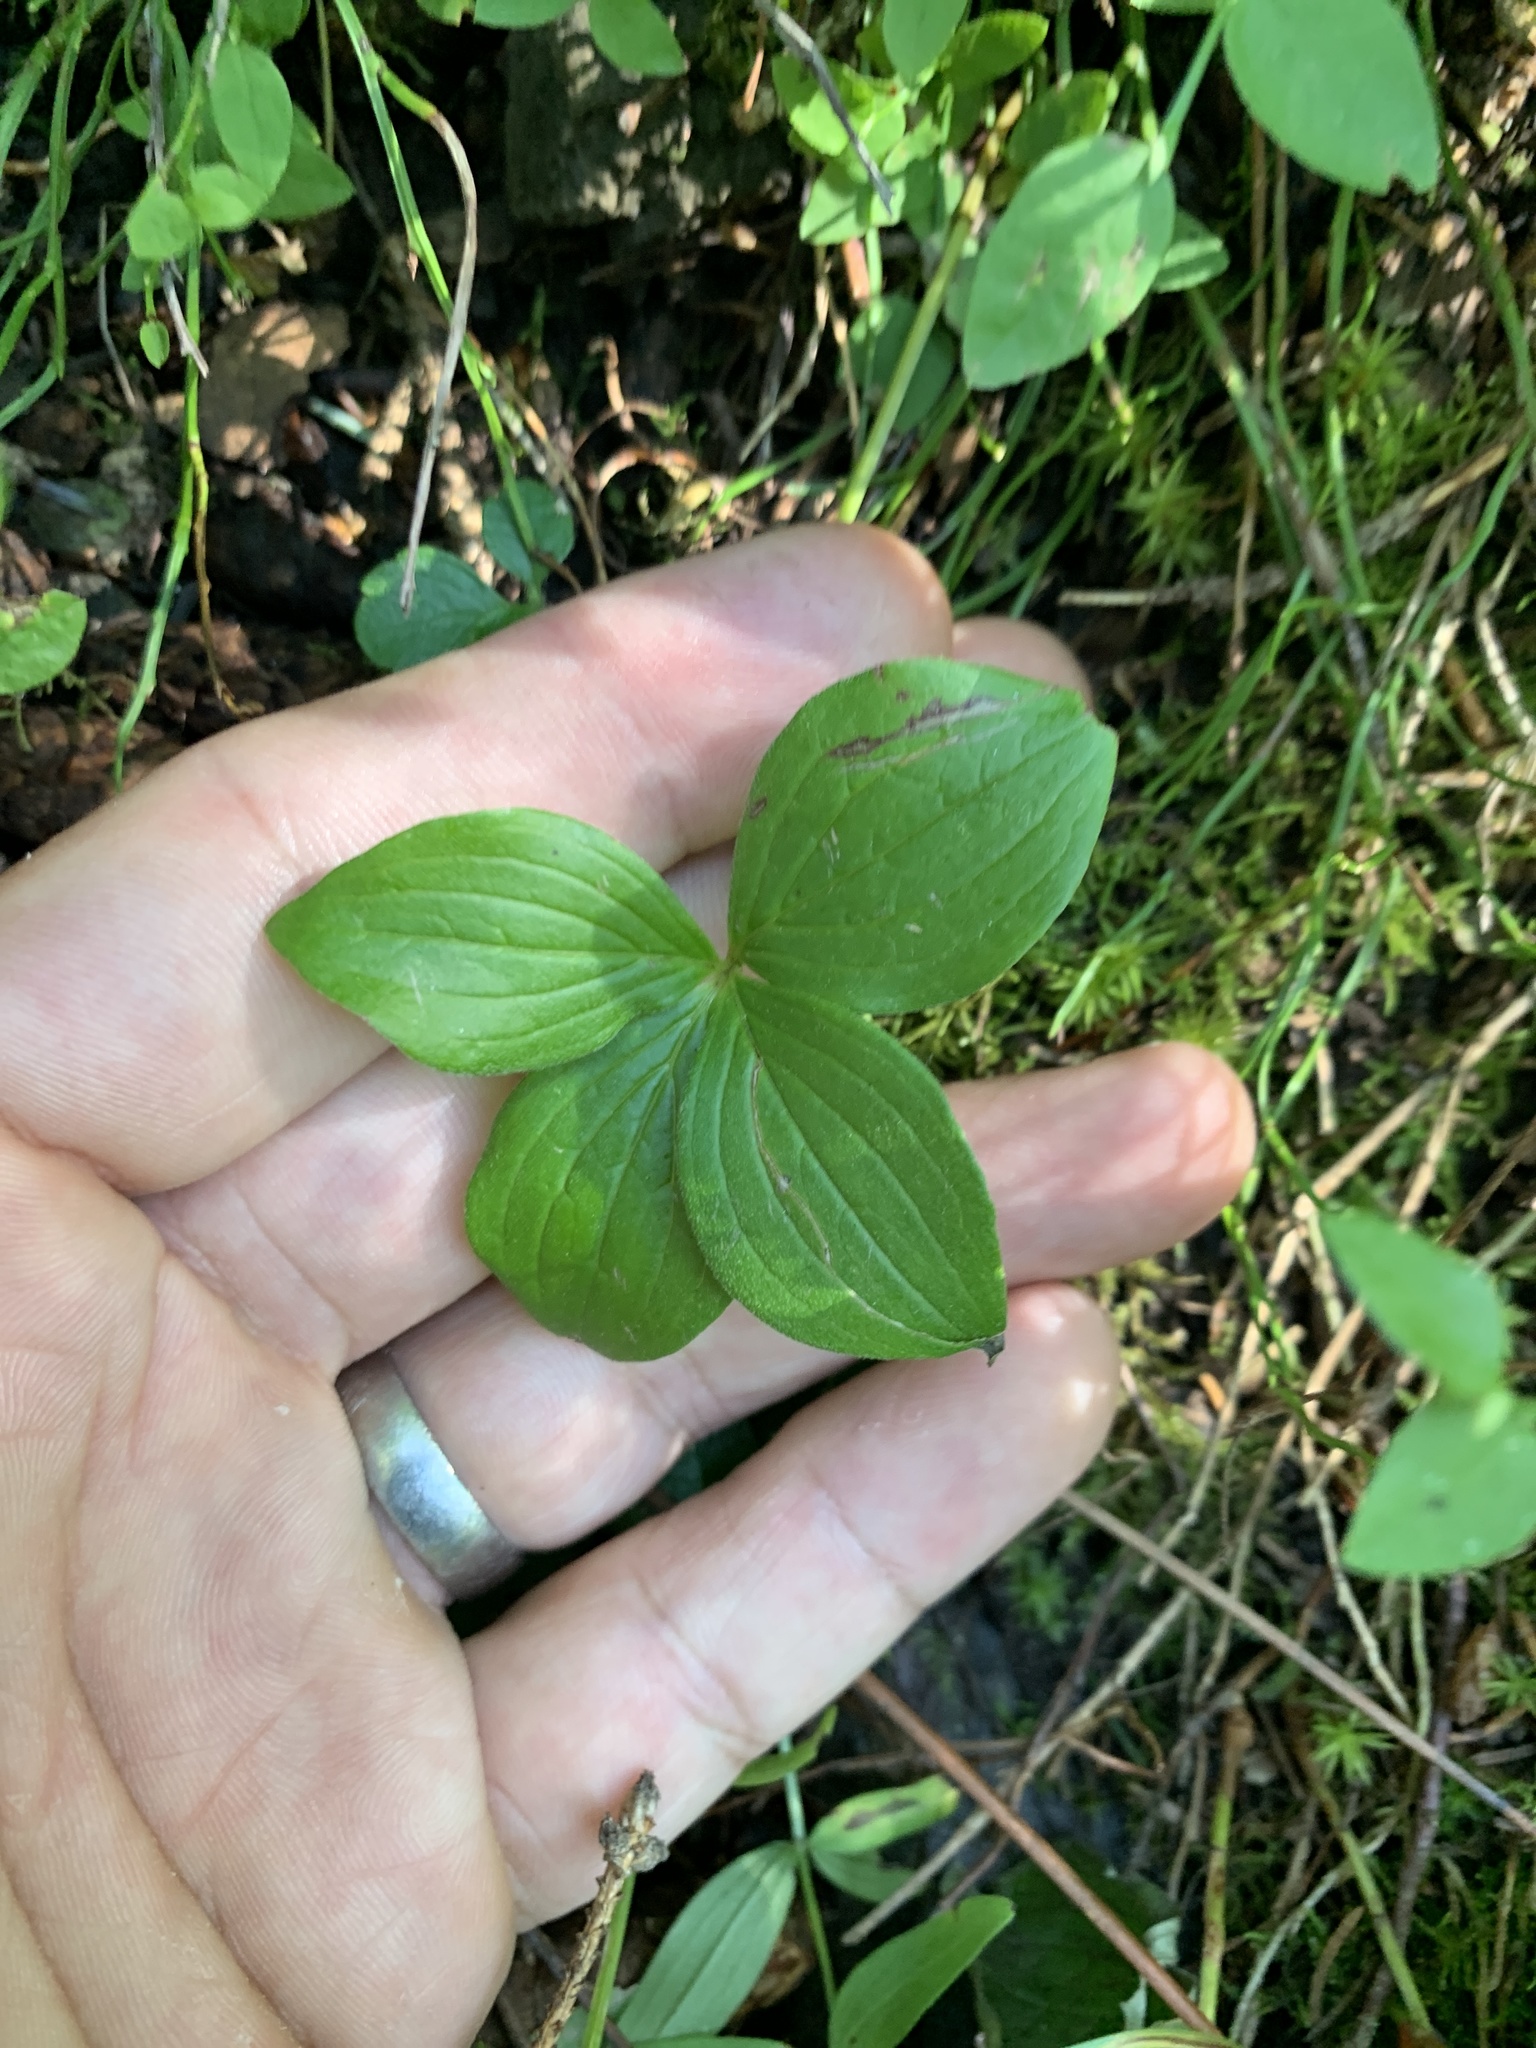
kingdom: Plantae
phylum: Tracheophyta
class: Magnoliopsida
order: Cornales
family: Cornaceae
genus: Cornus
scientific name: Cornus canadensis
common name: Creeping dogwood
